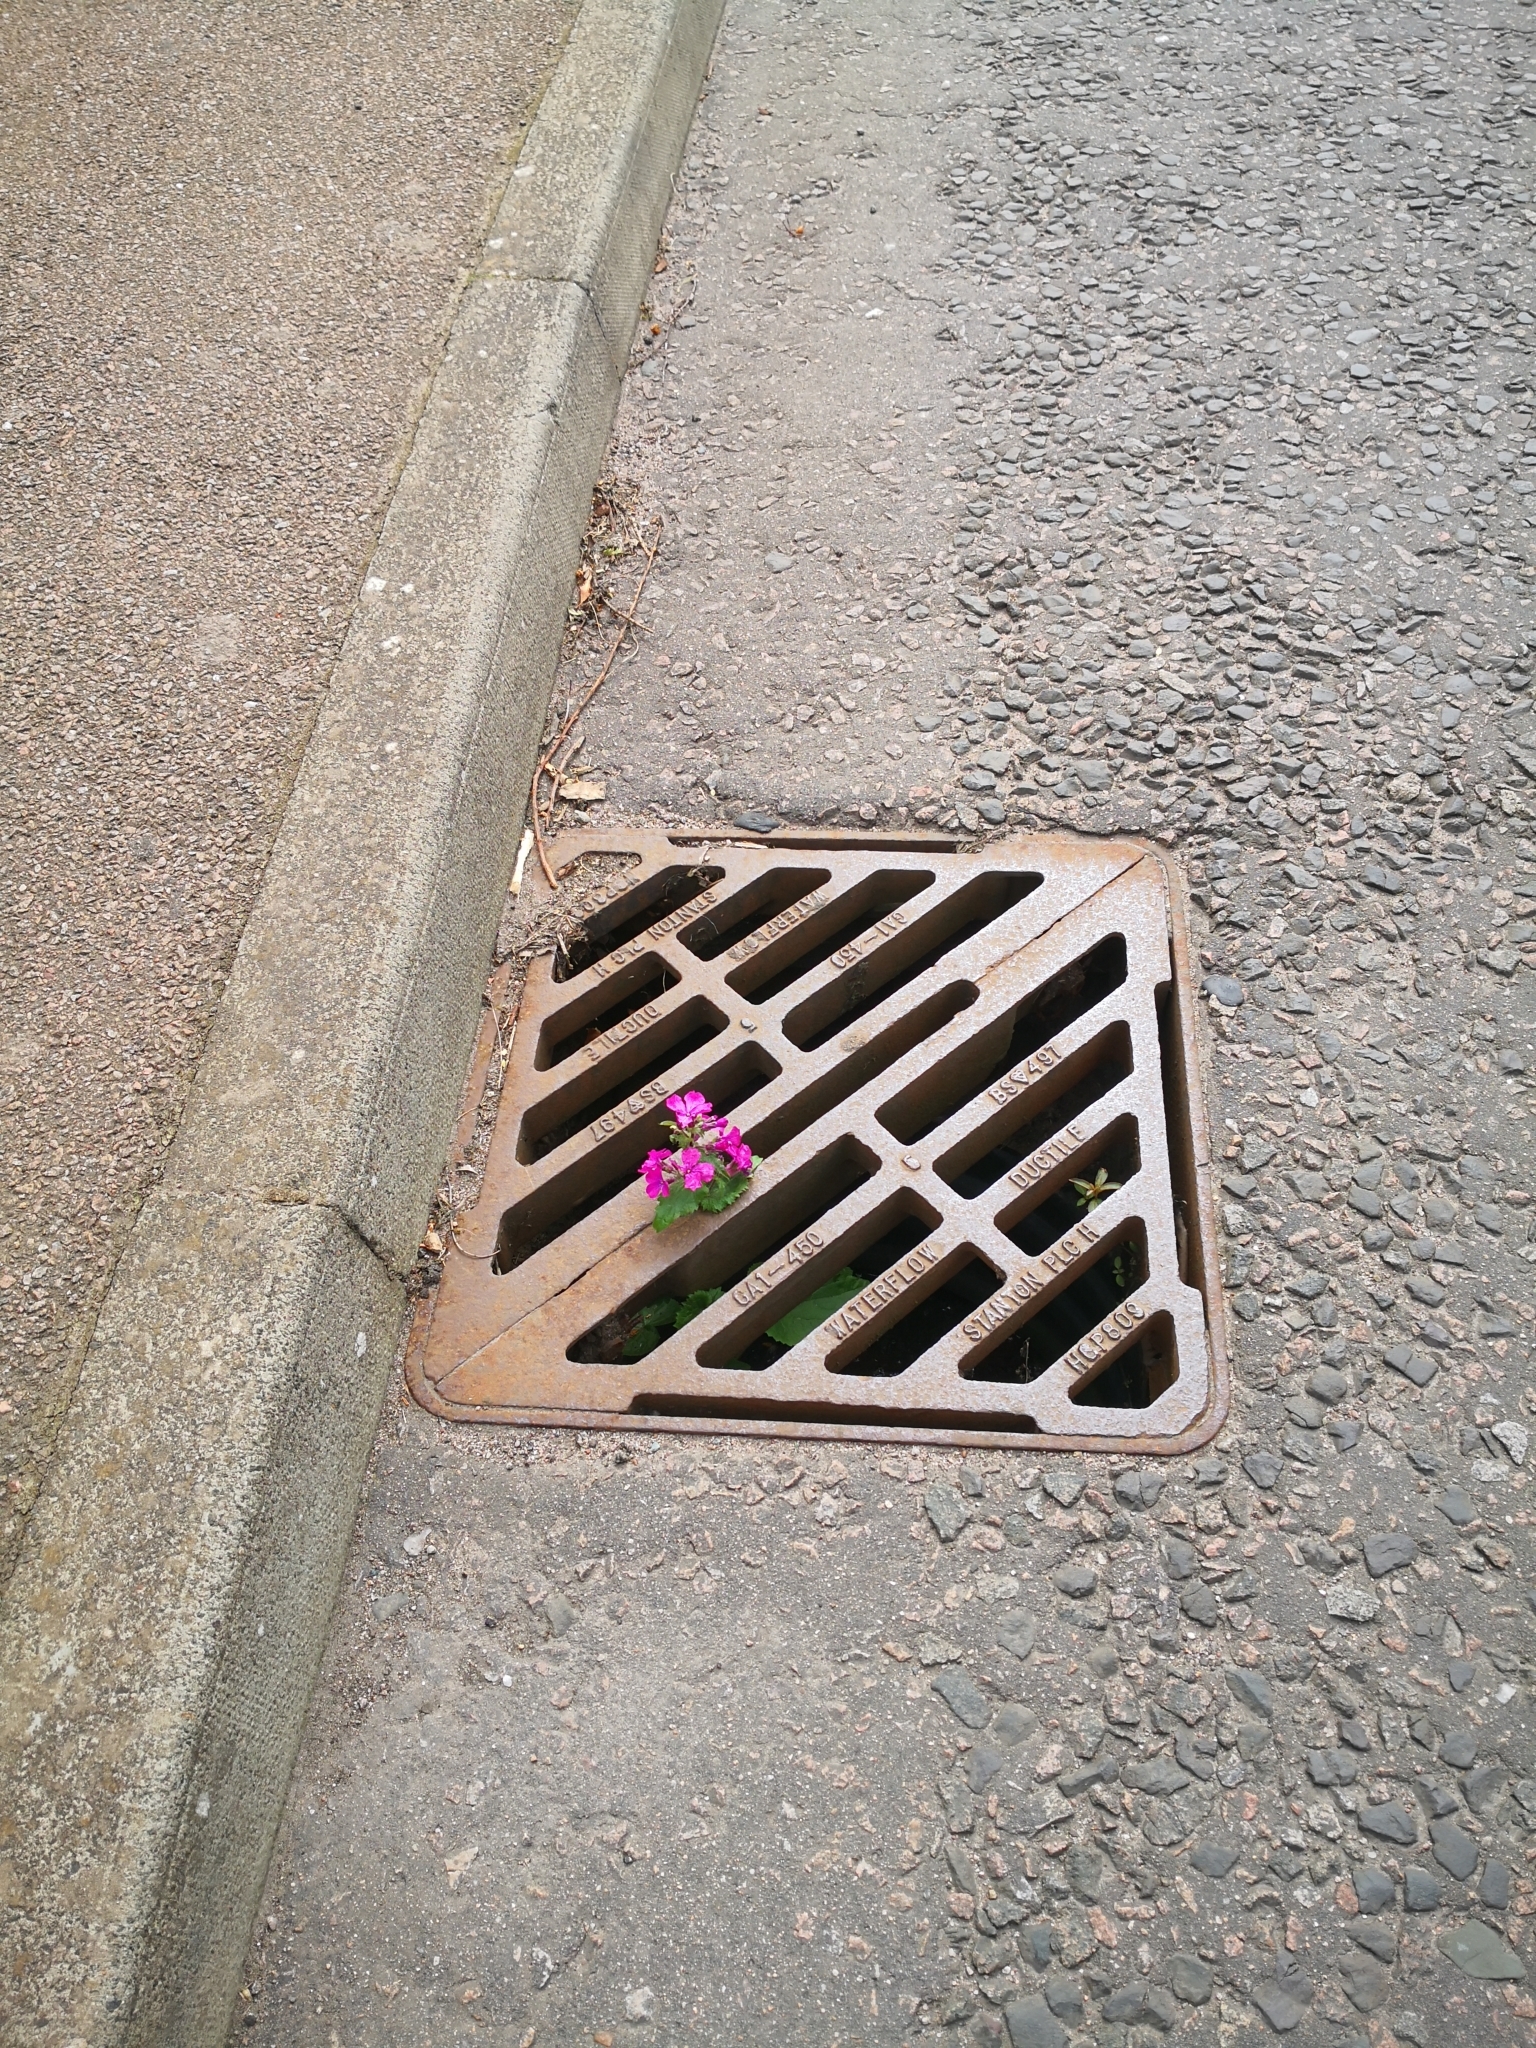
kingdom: Plantae
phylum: Tracheophyta
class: Magnoliopsida
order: Brassicales
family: Brassicaceae
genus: Lunaria
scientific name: Lunaria annua
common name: Honesty
